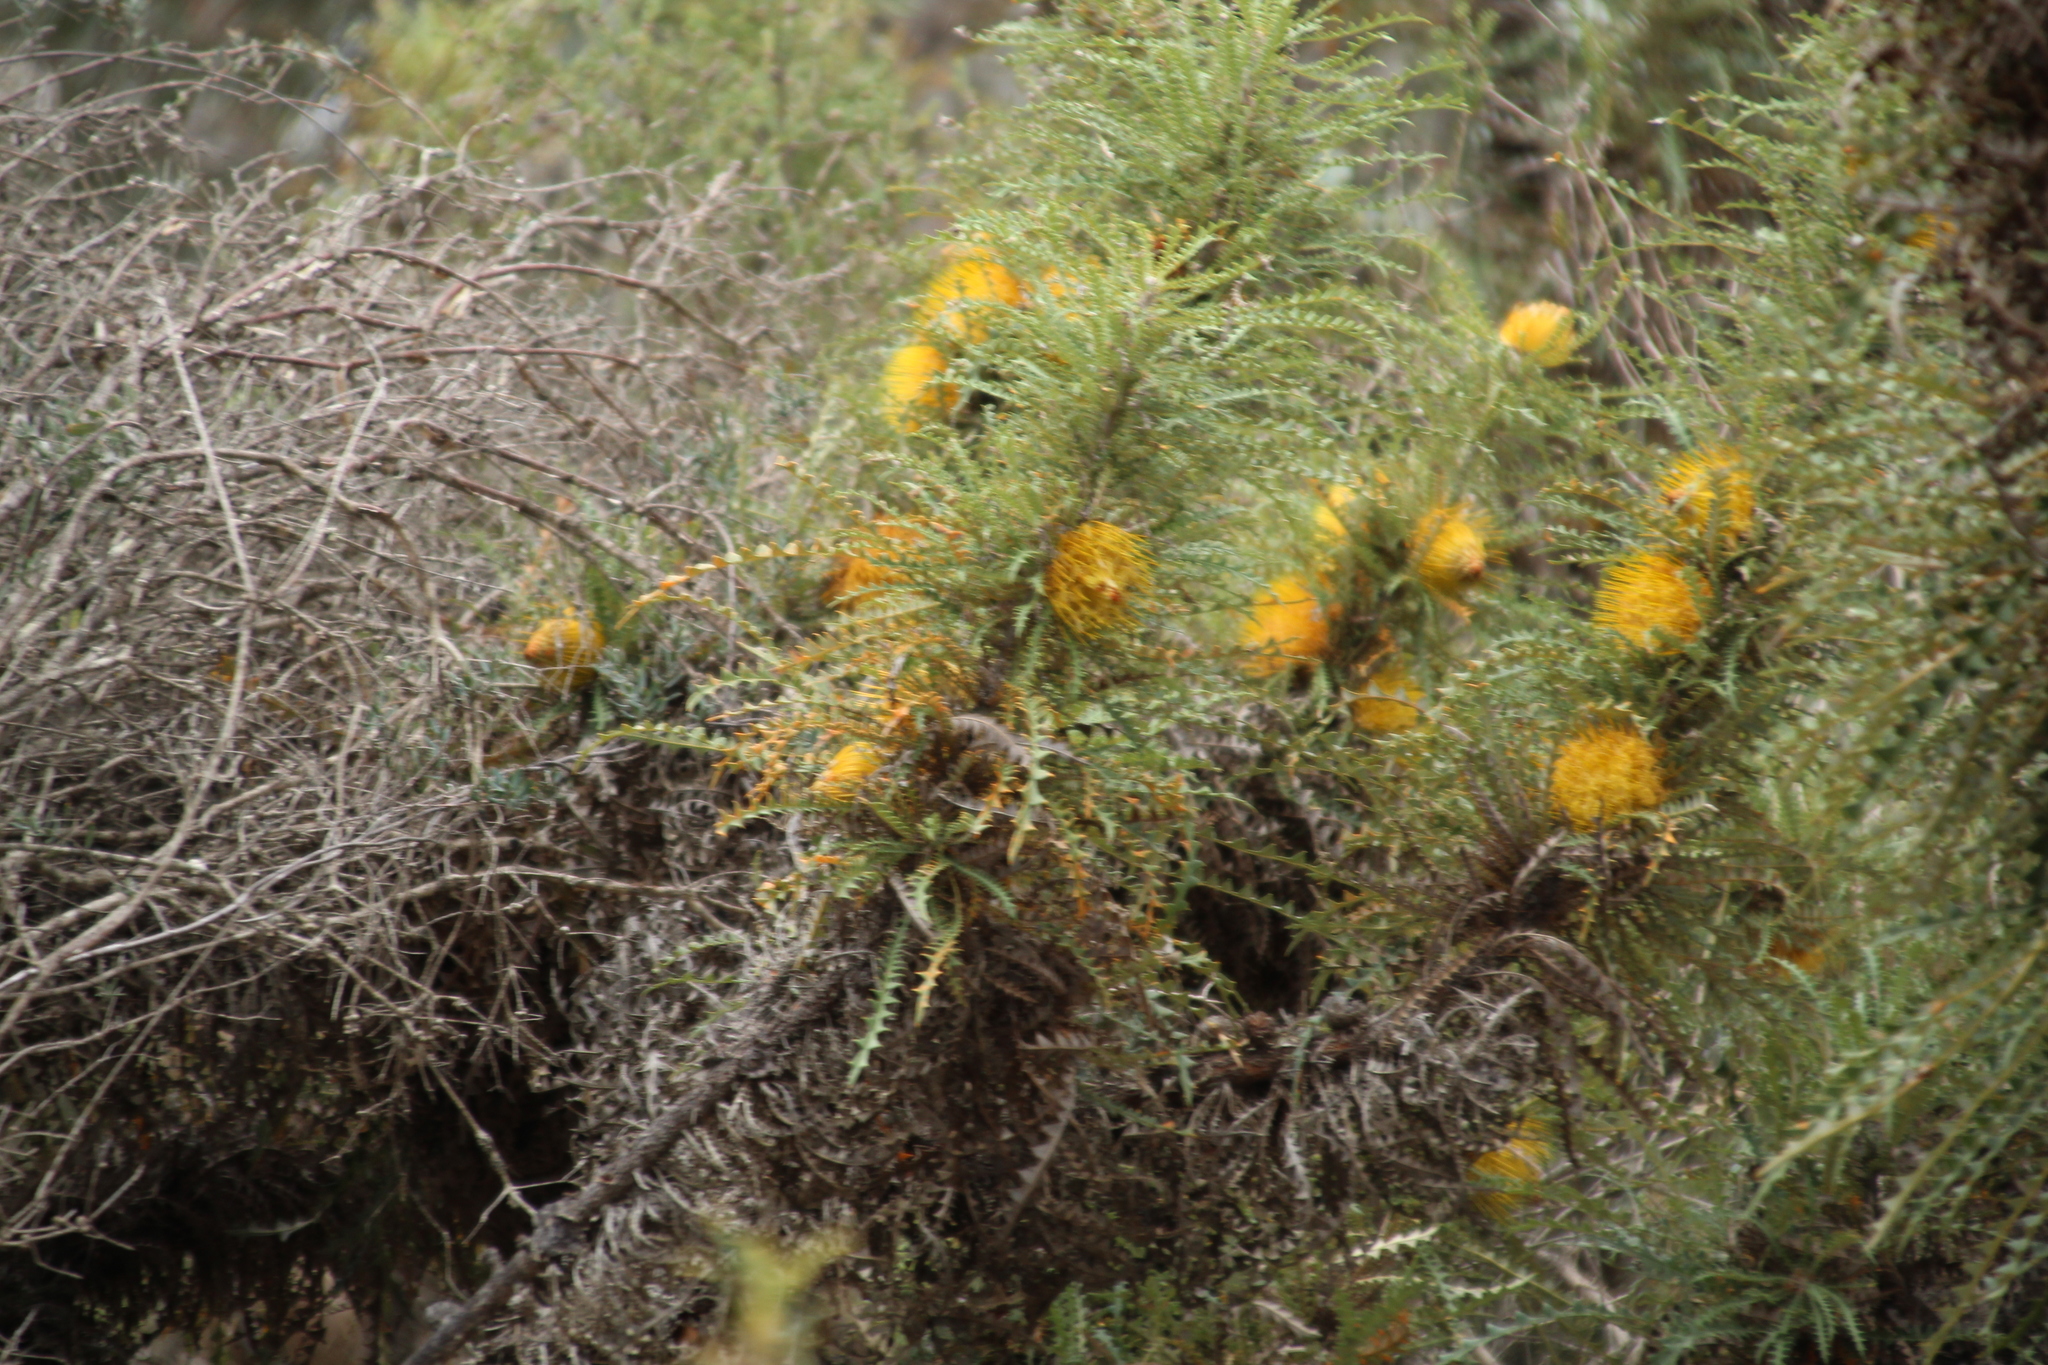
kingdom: Plantae
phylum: Tracheophyta
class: Magnoliopsida
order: Proteales
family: Proteaceae
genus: Banksia
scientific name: Banksia horrida
